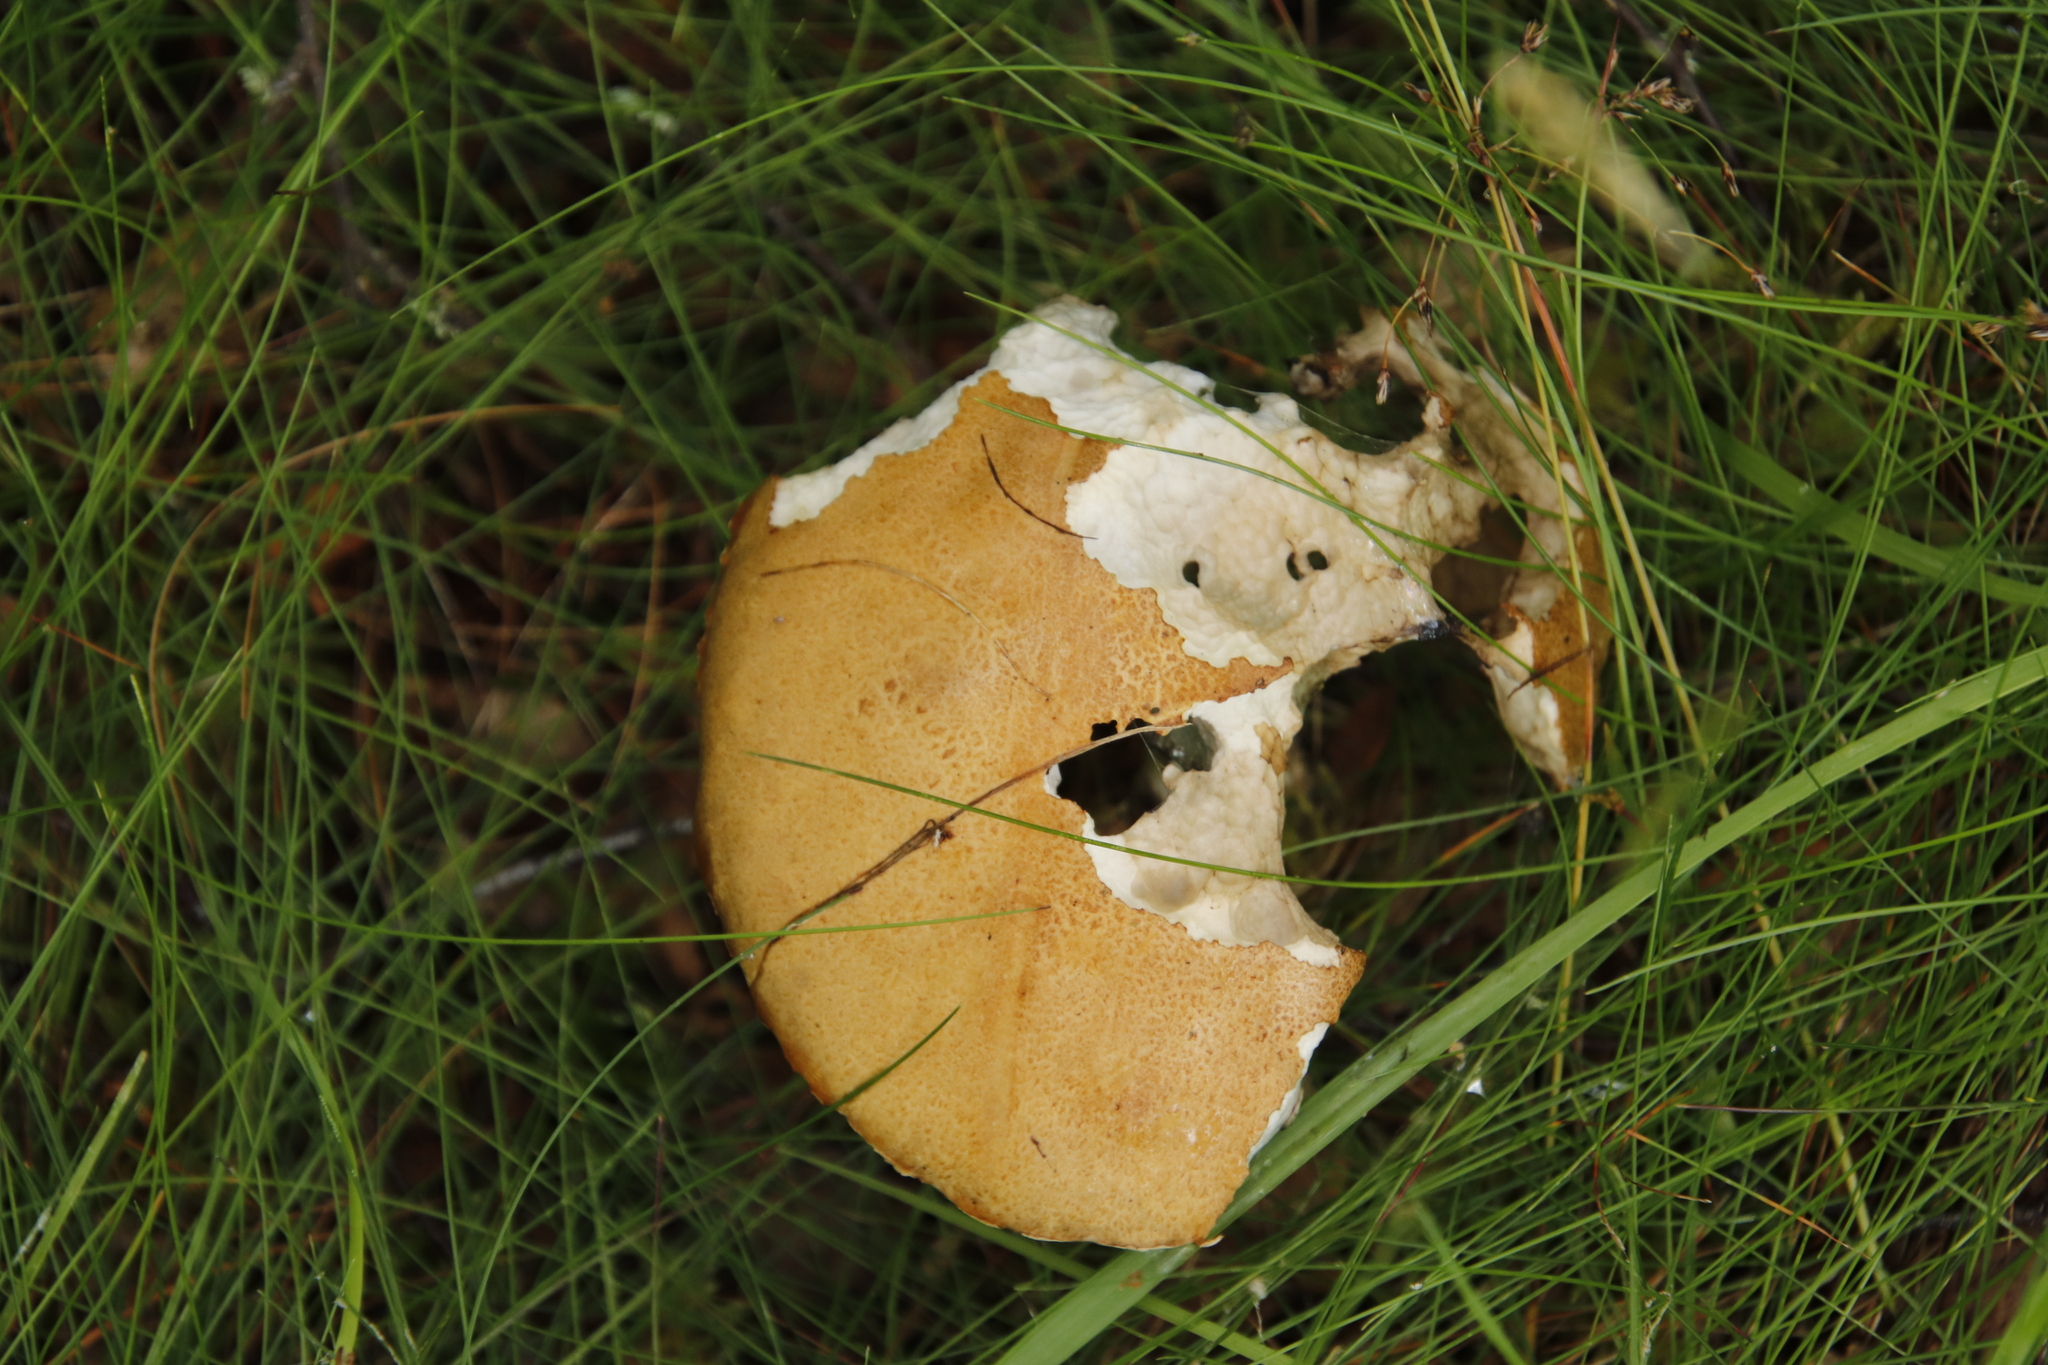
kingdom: Fungi
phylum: Basidiomycota
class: Agaricomycetes
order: Boletales
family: Boletaceae
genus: Leccinum
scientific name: Leccinum versipelle
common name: Orange birch bolete
